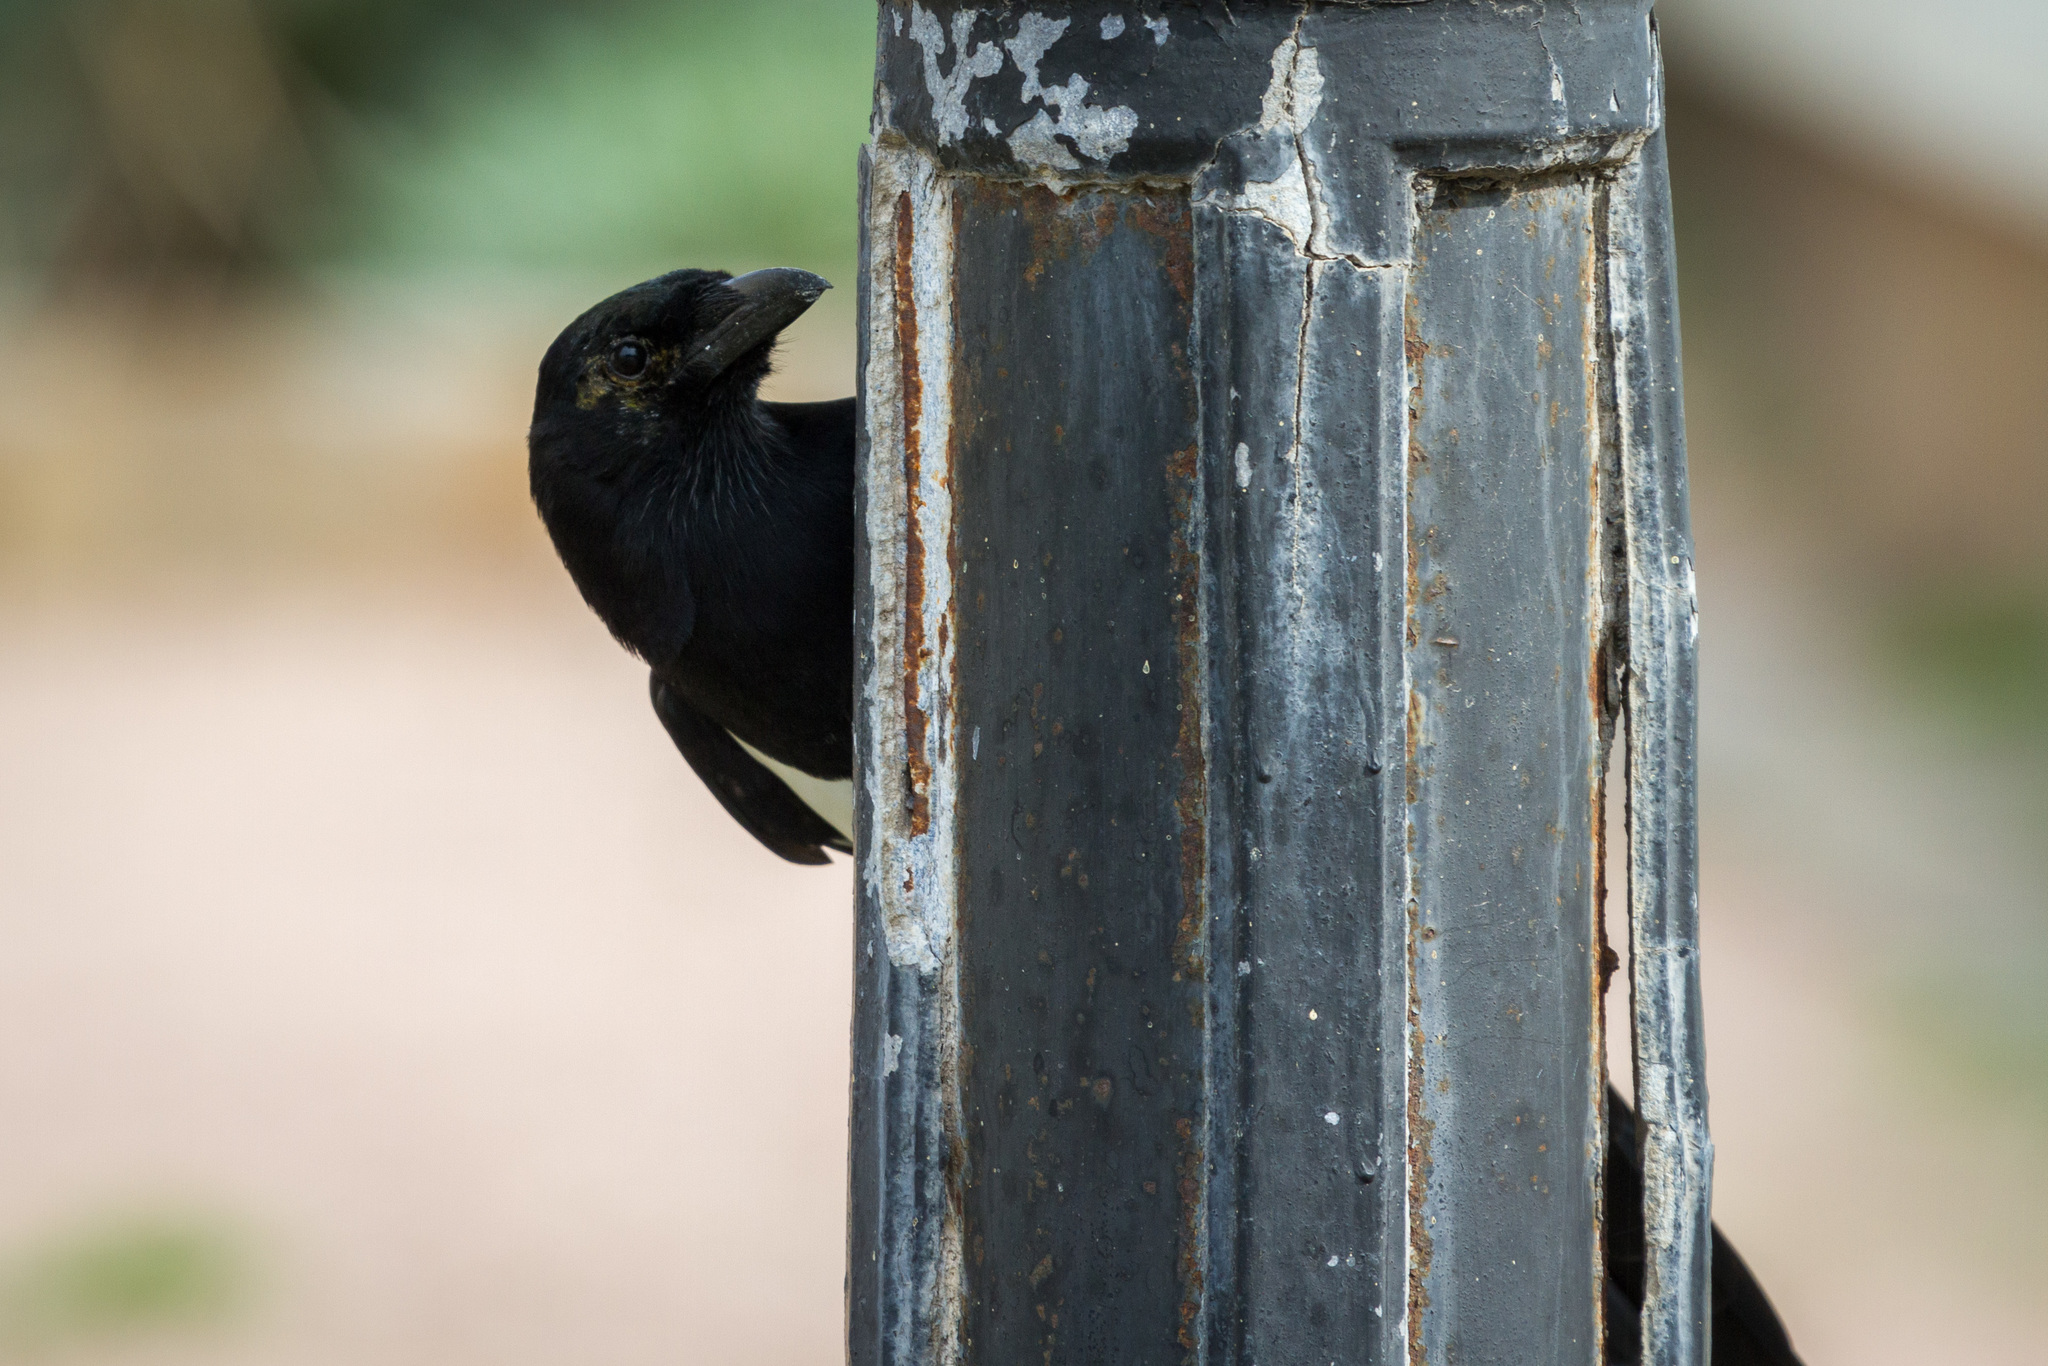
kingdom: Animalia
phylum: Chordata
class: Aves
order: Passeriformes
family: Corvidae
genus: Pica
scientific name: Pica pica
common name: Eurasian magpie
